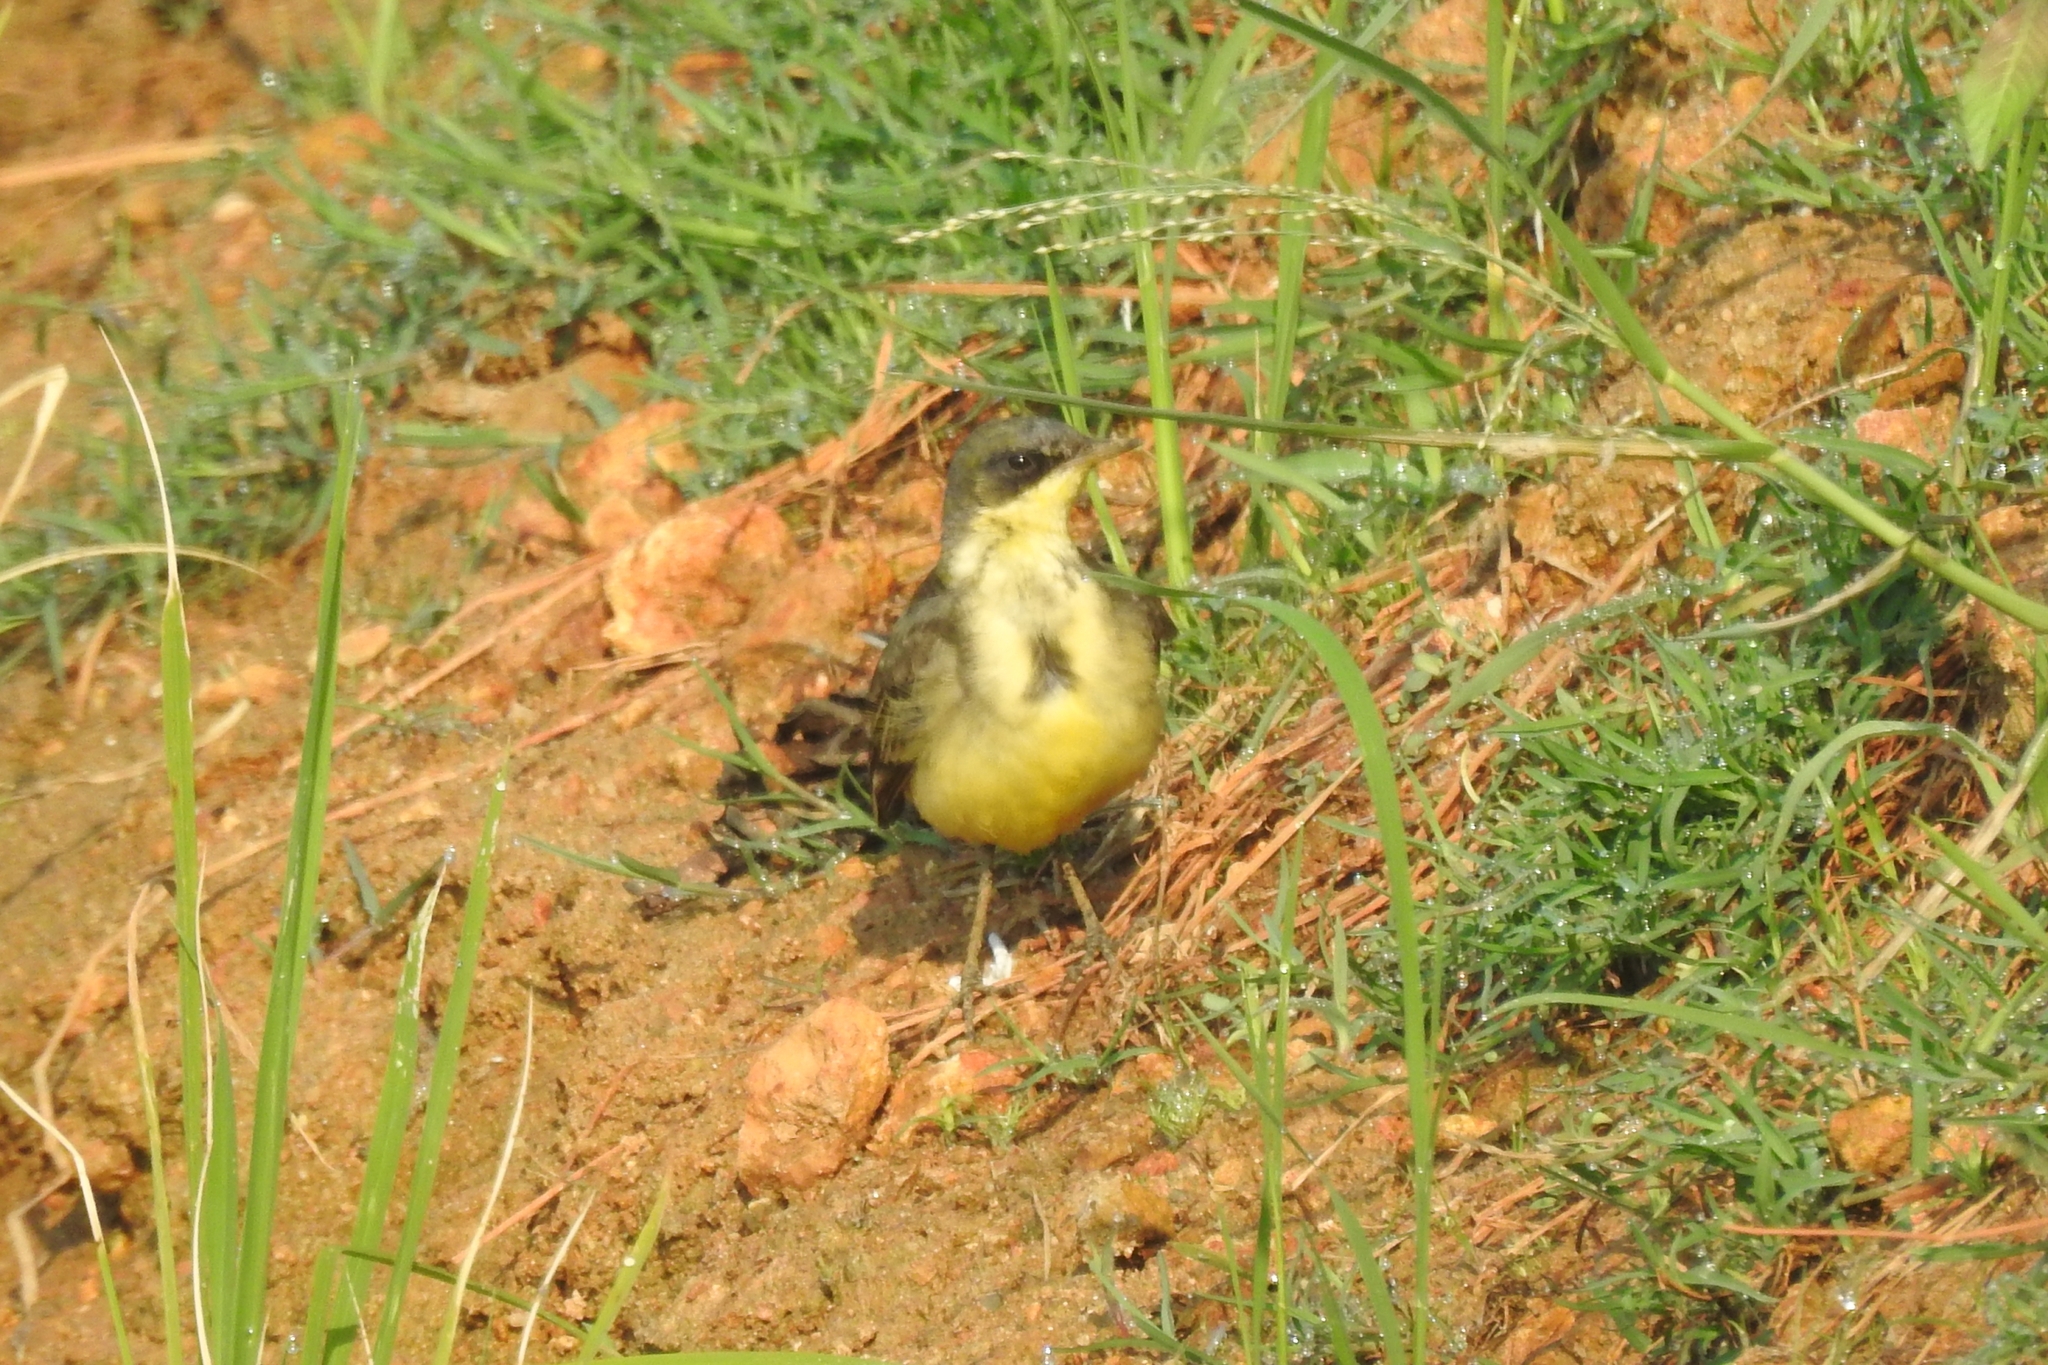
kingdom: Animalia
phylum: Chordata
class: Aves
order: Passeriformes
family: Motacillidae
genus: Motacilla
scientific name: Motacilla flava
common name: Western yellow wagtail
